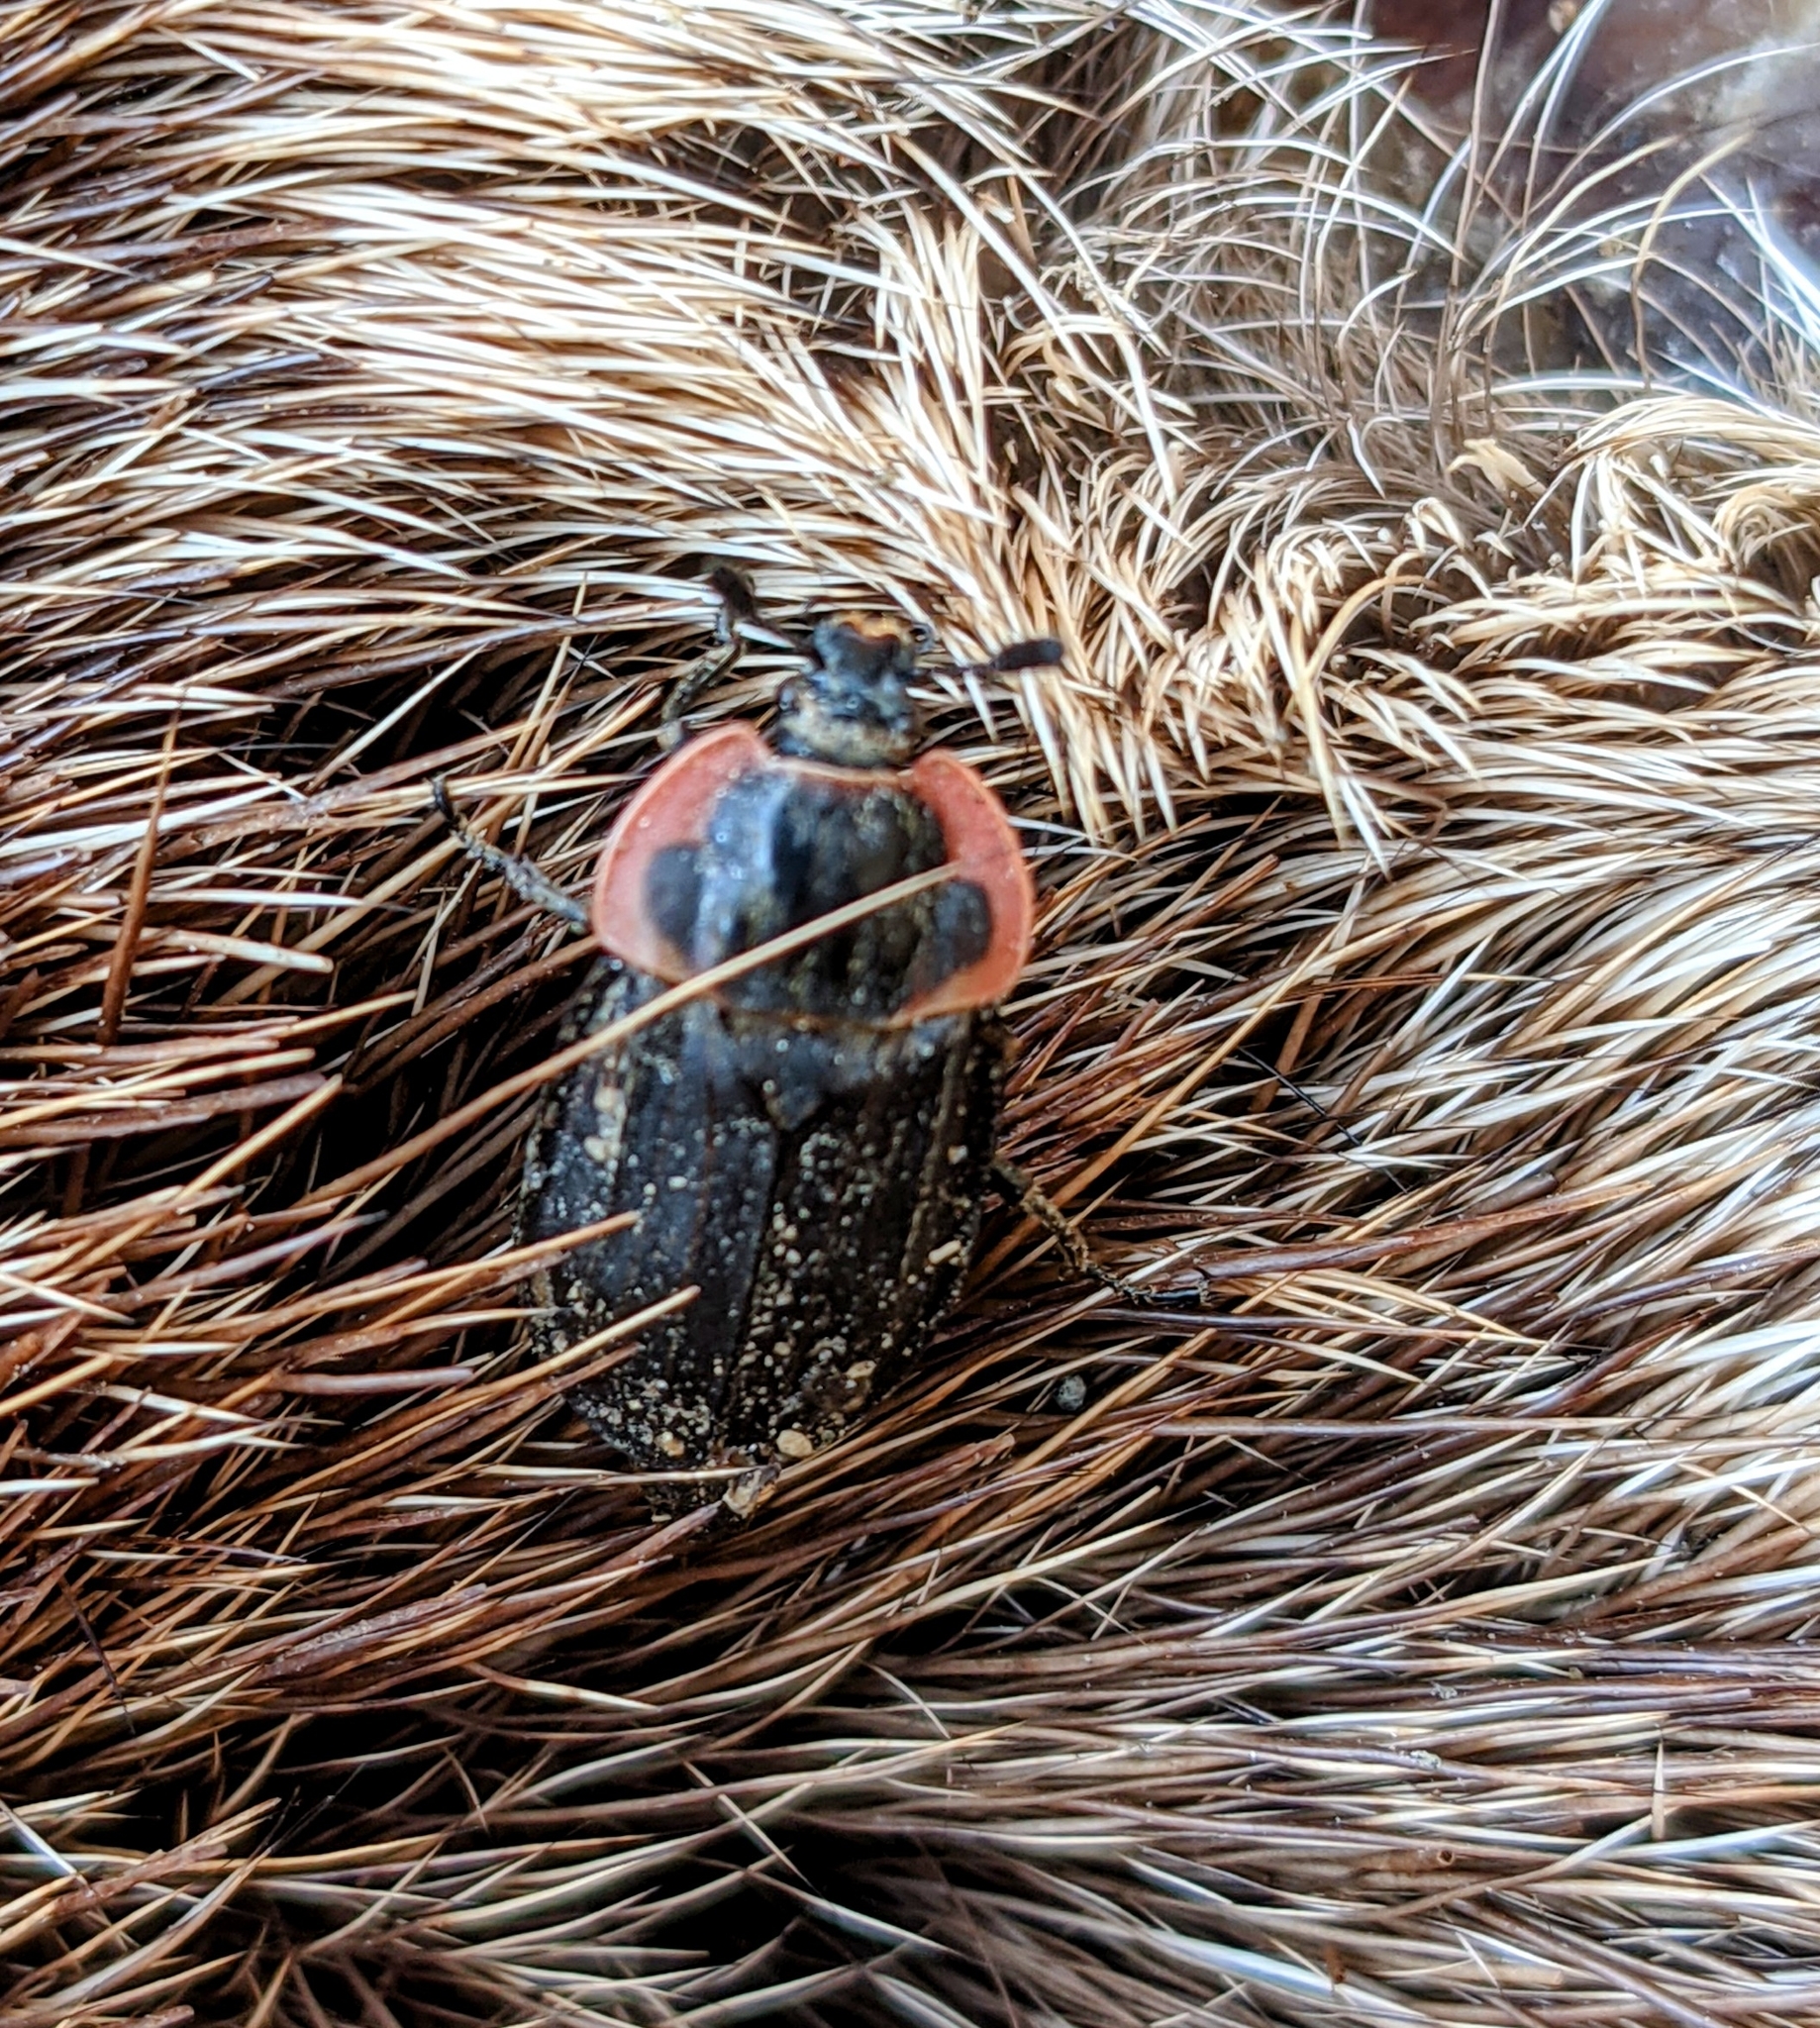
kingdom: Animalia
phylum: Arthropoda
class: Insecta
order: Coleoptera
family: Staphylinidae
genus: Oiceoptoma
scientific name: Oiceoptoma noveboracense
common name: Margined carrion beetle
